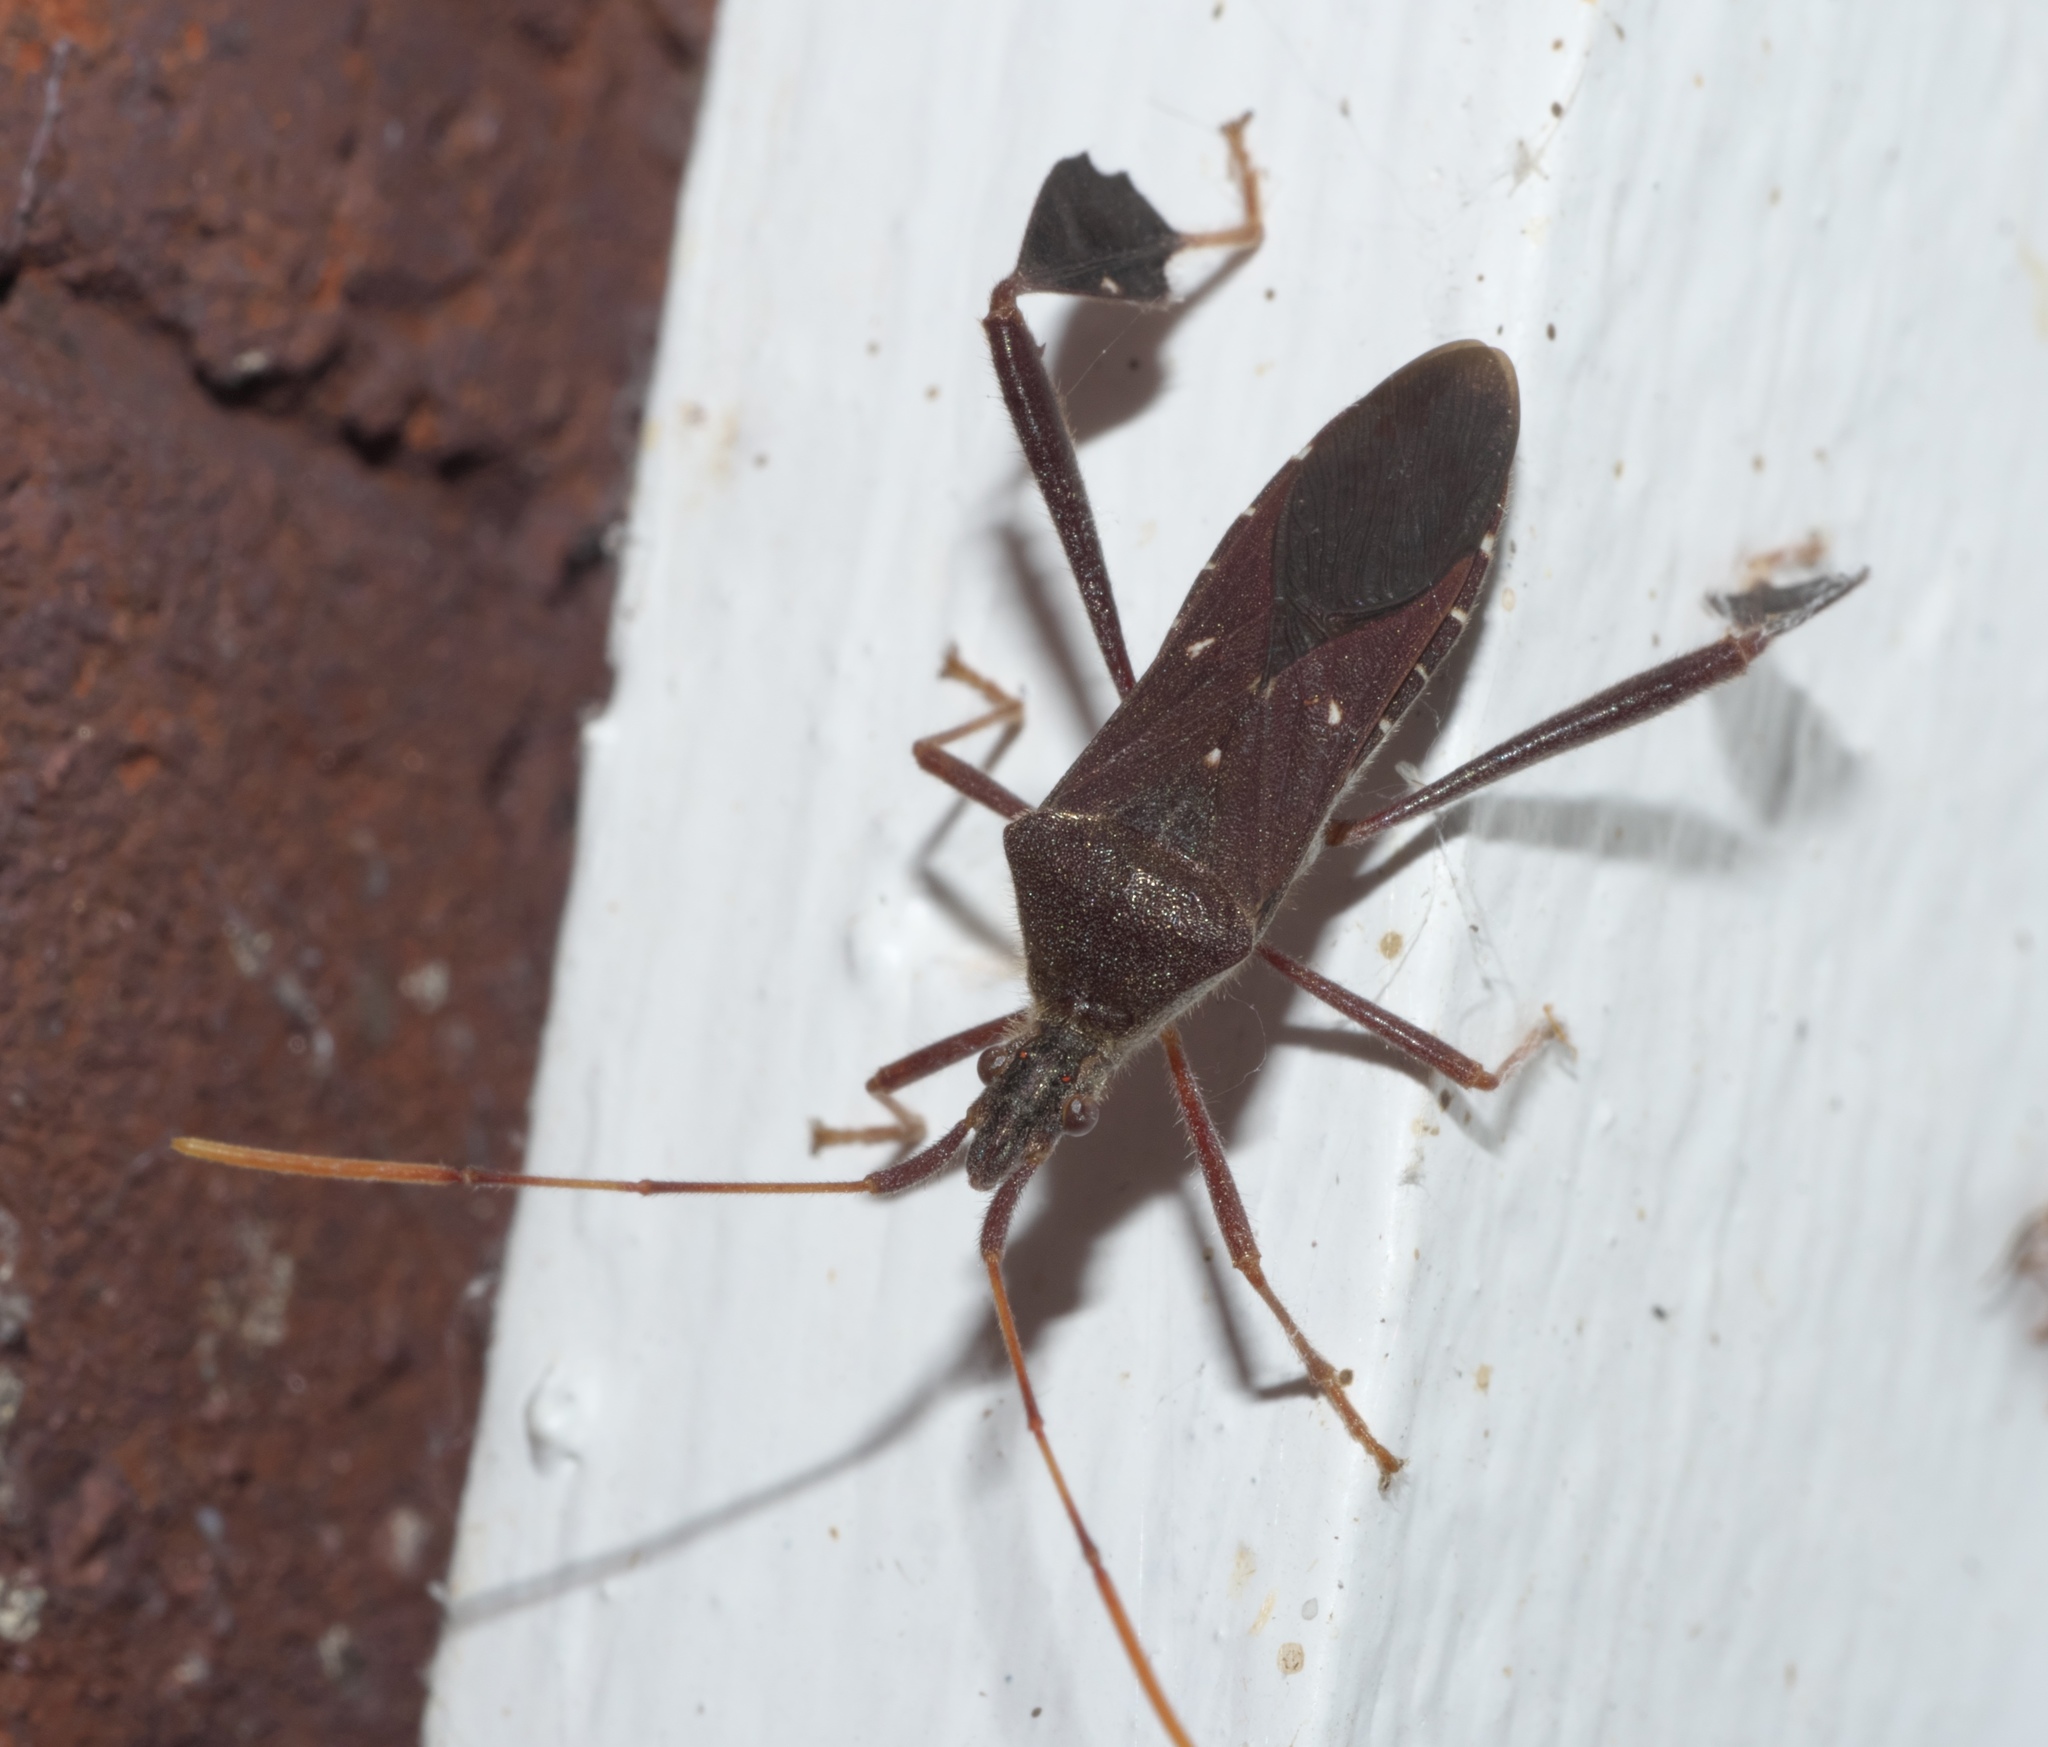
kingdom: Animalia
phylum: Arthropoda
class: Insecta
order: Hemiptera
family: Coreidae
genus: Leptoglossus
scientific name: Leptoglossus oppositus
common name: Northern leaf-footed bug
